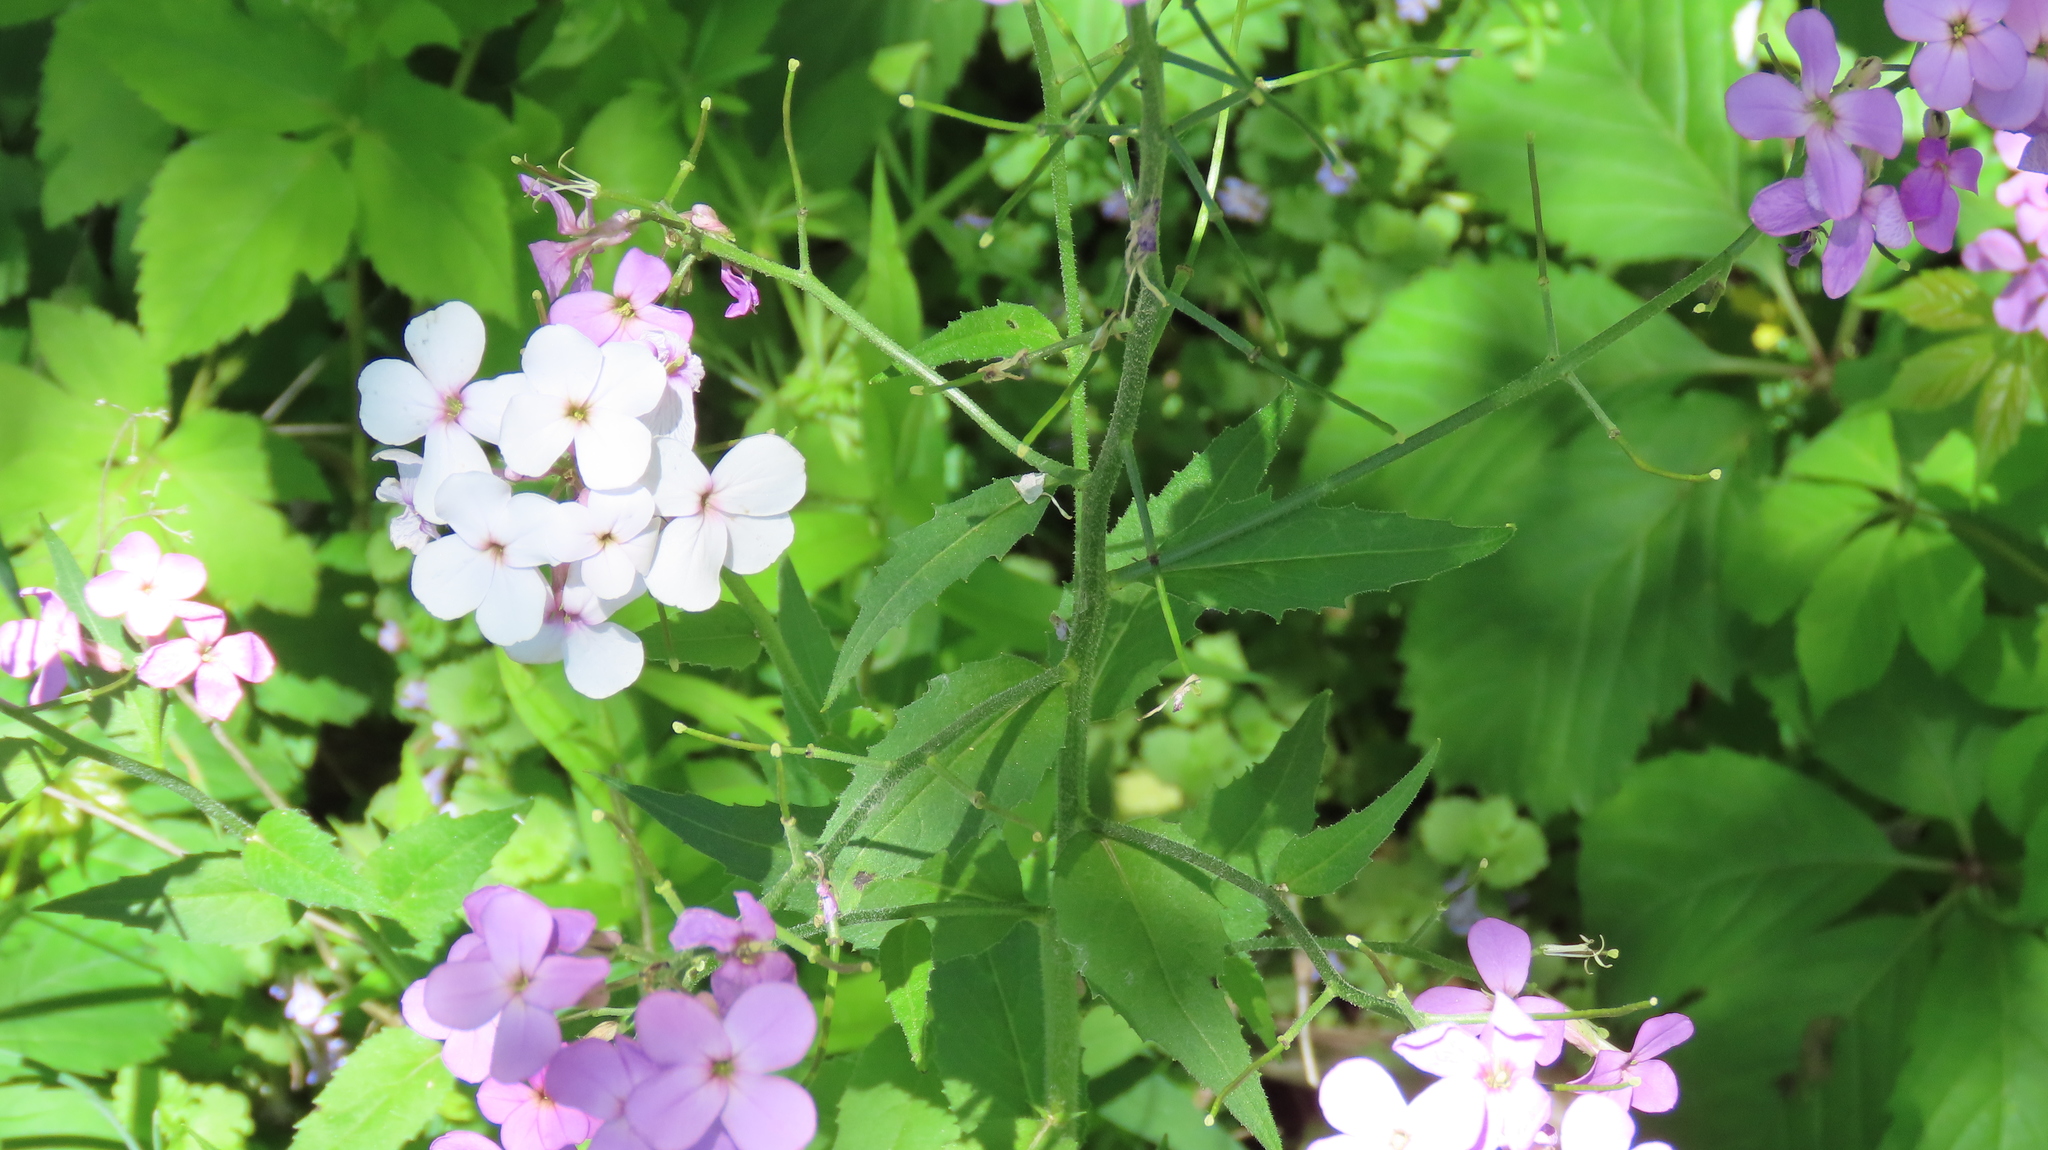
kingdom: Plantae
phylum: Tracheophyta
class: Magnoliopsida
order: Brassicales
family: Brassicaceae
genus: Hesperis
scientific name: Hesperis matronalis
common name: Dame's-violet
